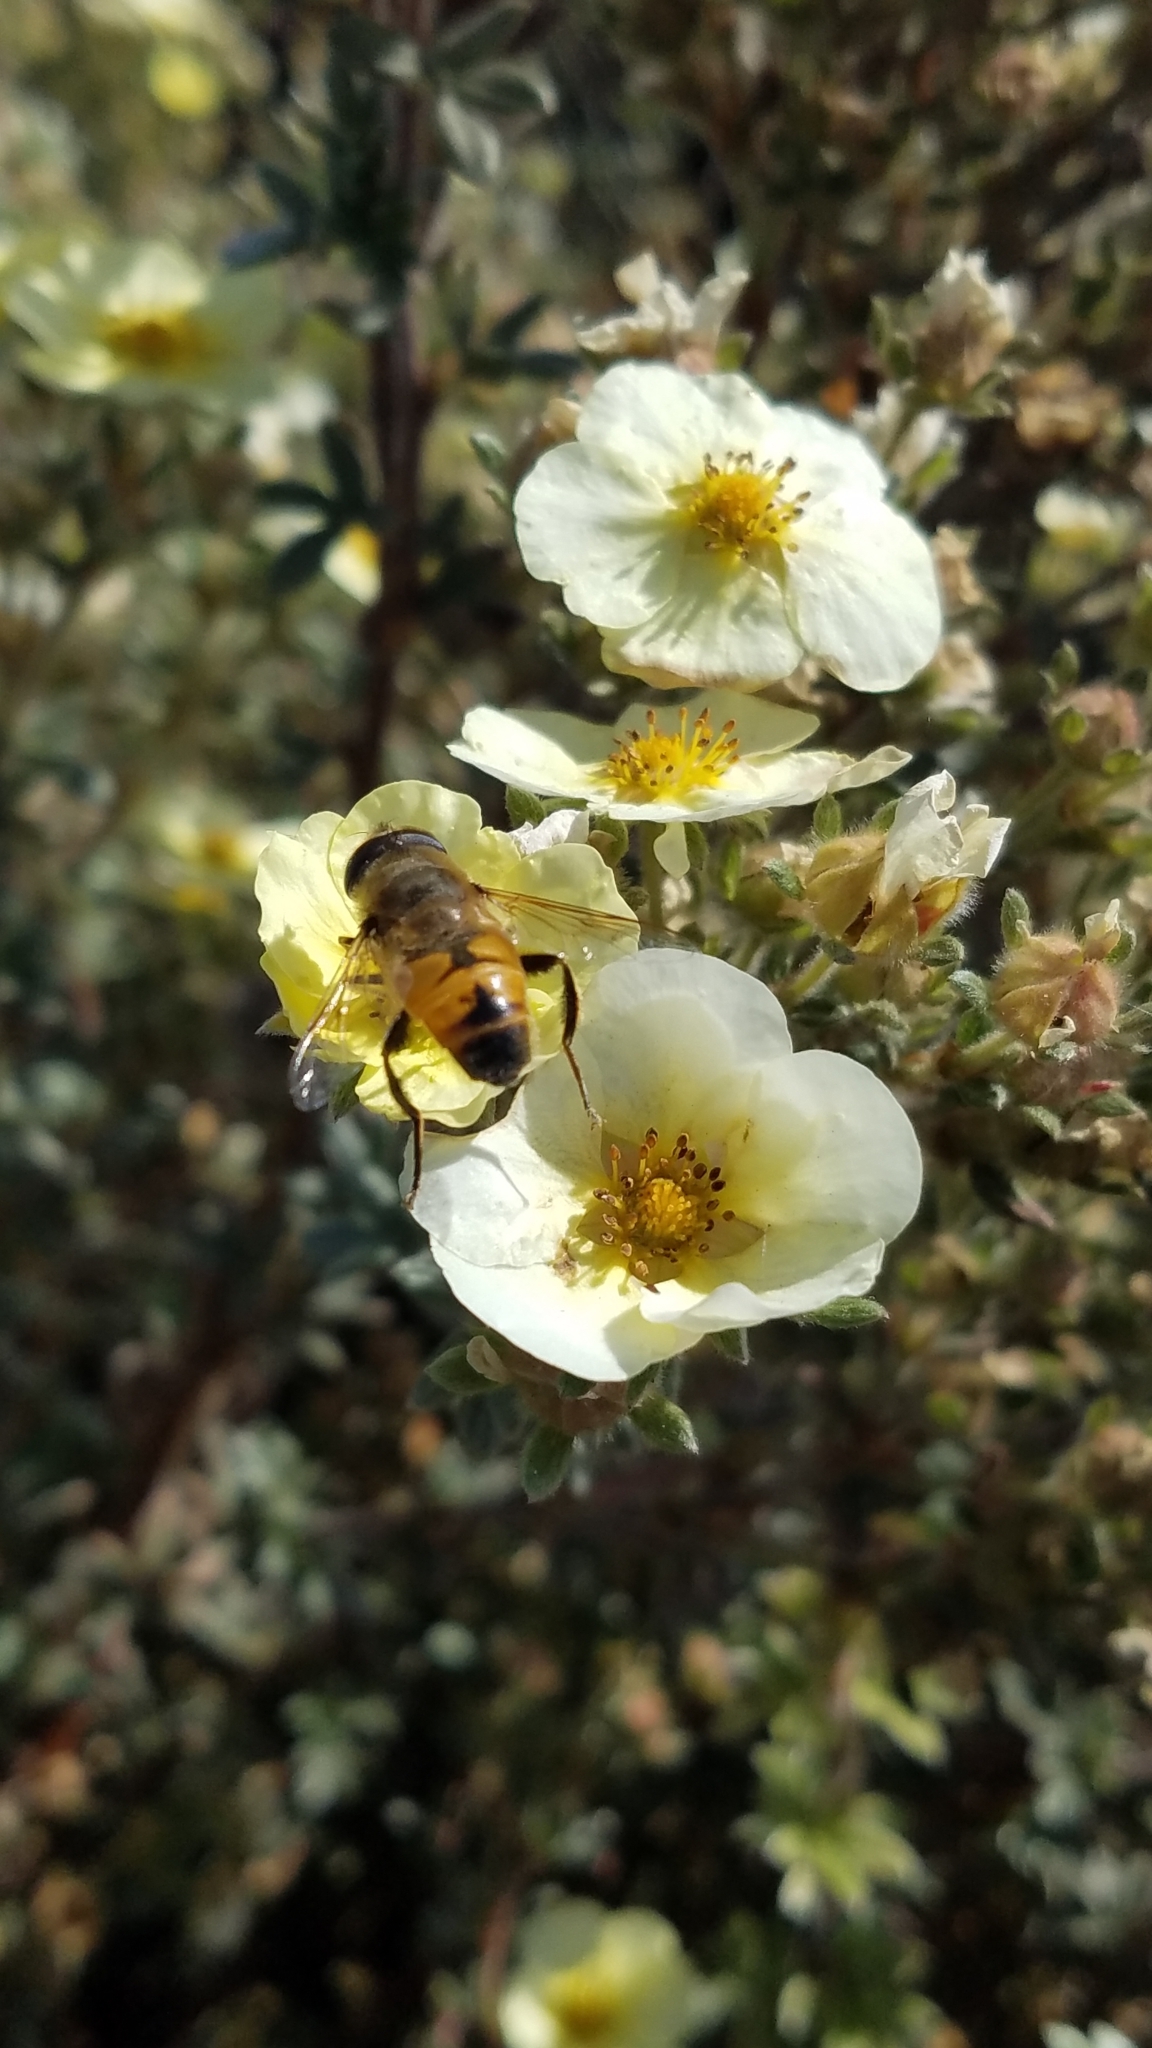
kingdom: Animalia
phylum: Arthropoda
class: Insecta
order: Diptera
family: Syrphidae
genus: Eristalis
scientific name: Eristalis tenax
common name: Drone fly
